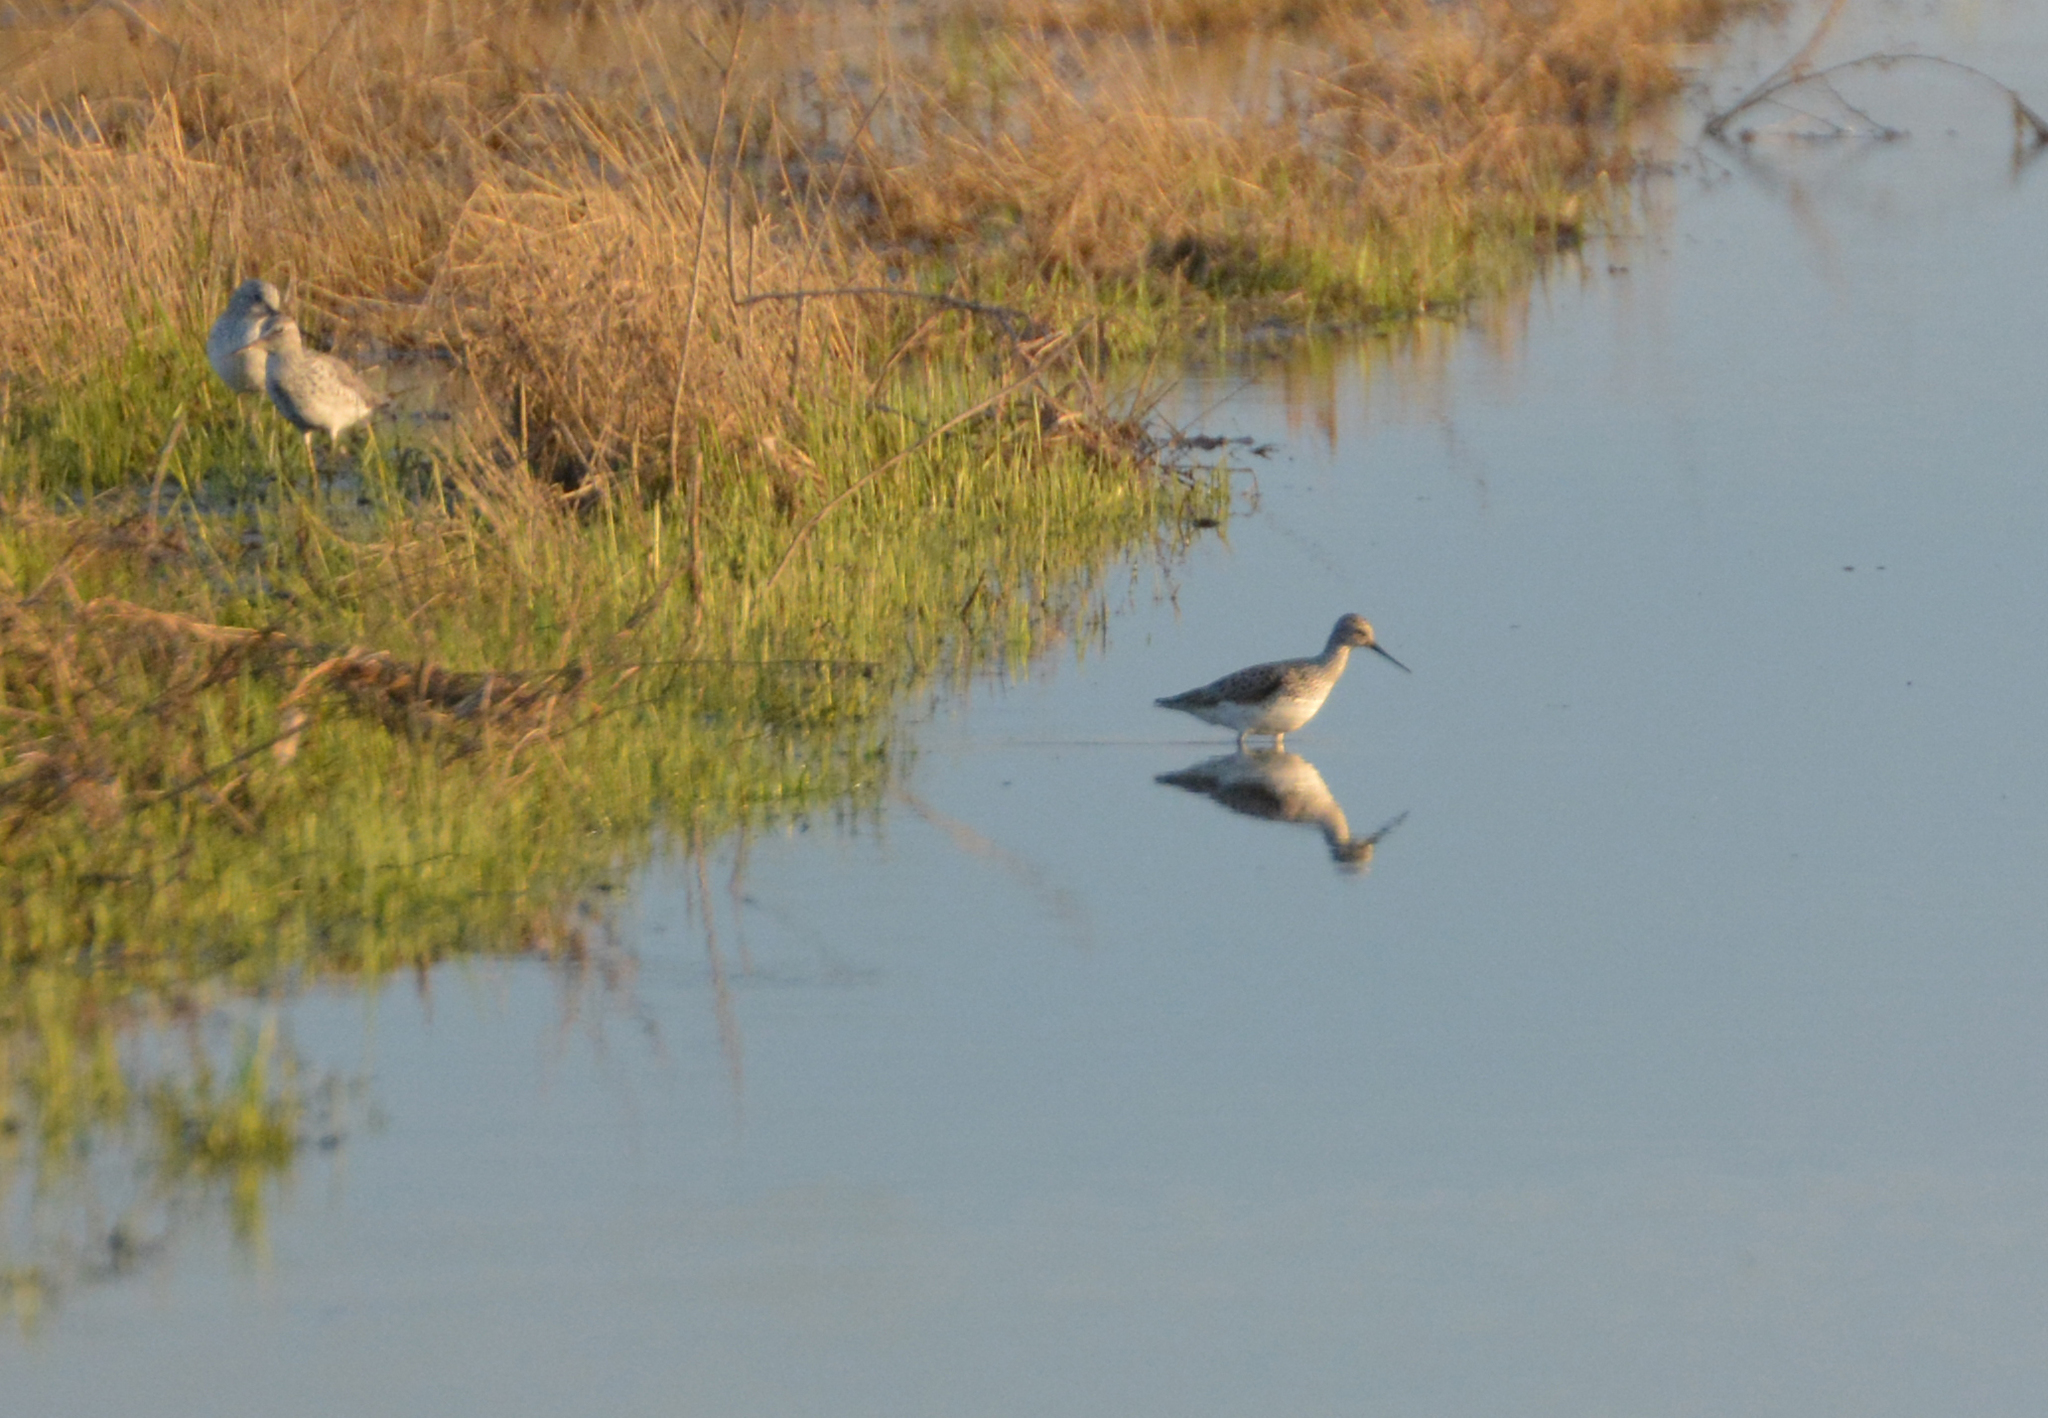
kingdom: Animalia
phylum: Chordata
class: Aves
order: Charadriiformes
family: Scolopacidae
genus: Tringa
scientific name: Tringa stagnatilis
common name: Marsh sandpiper
